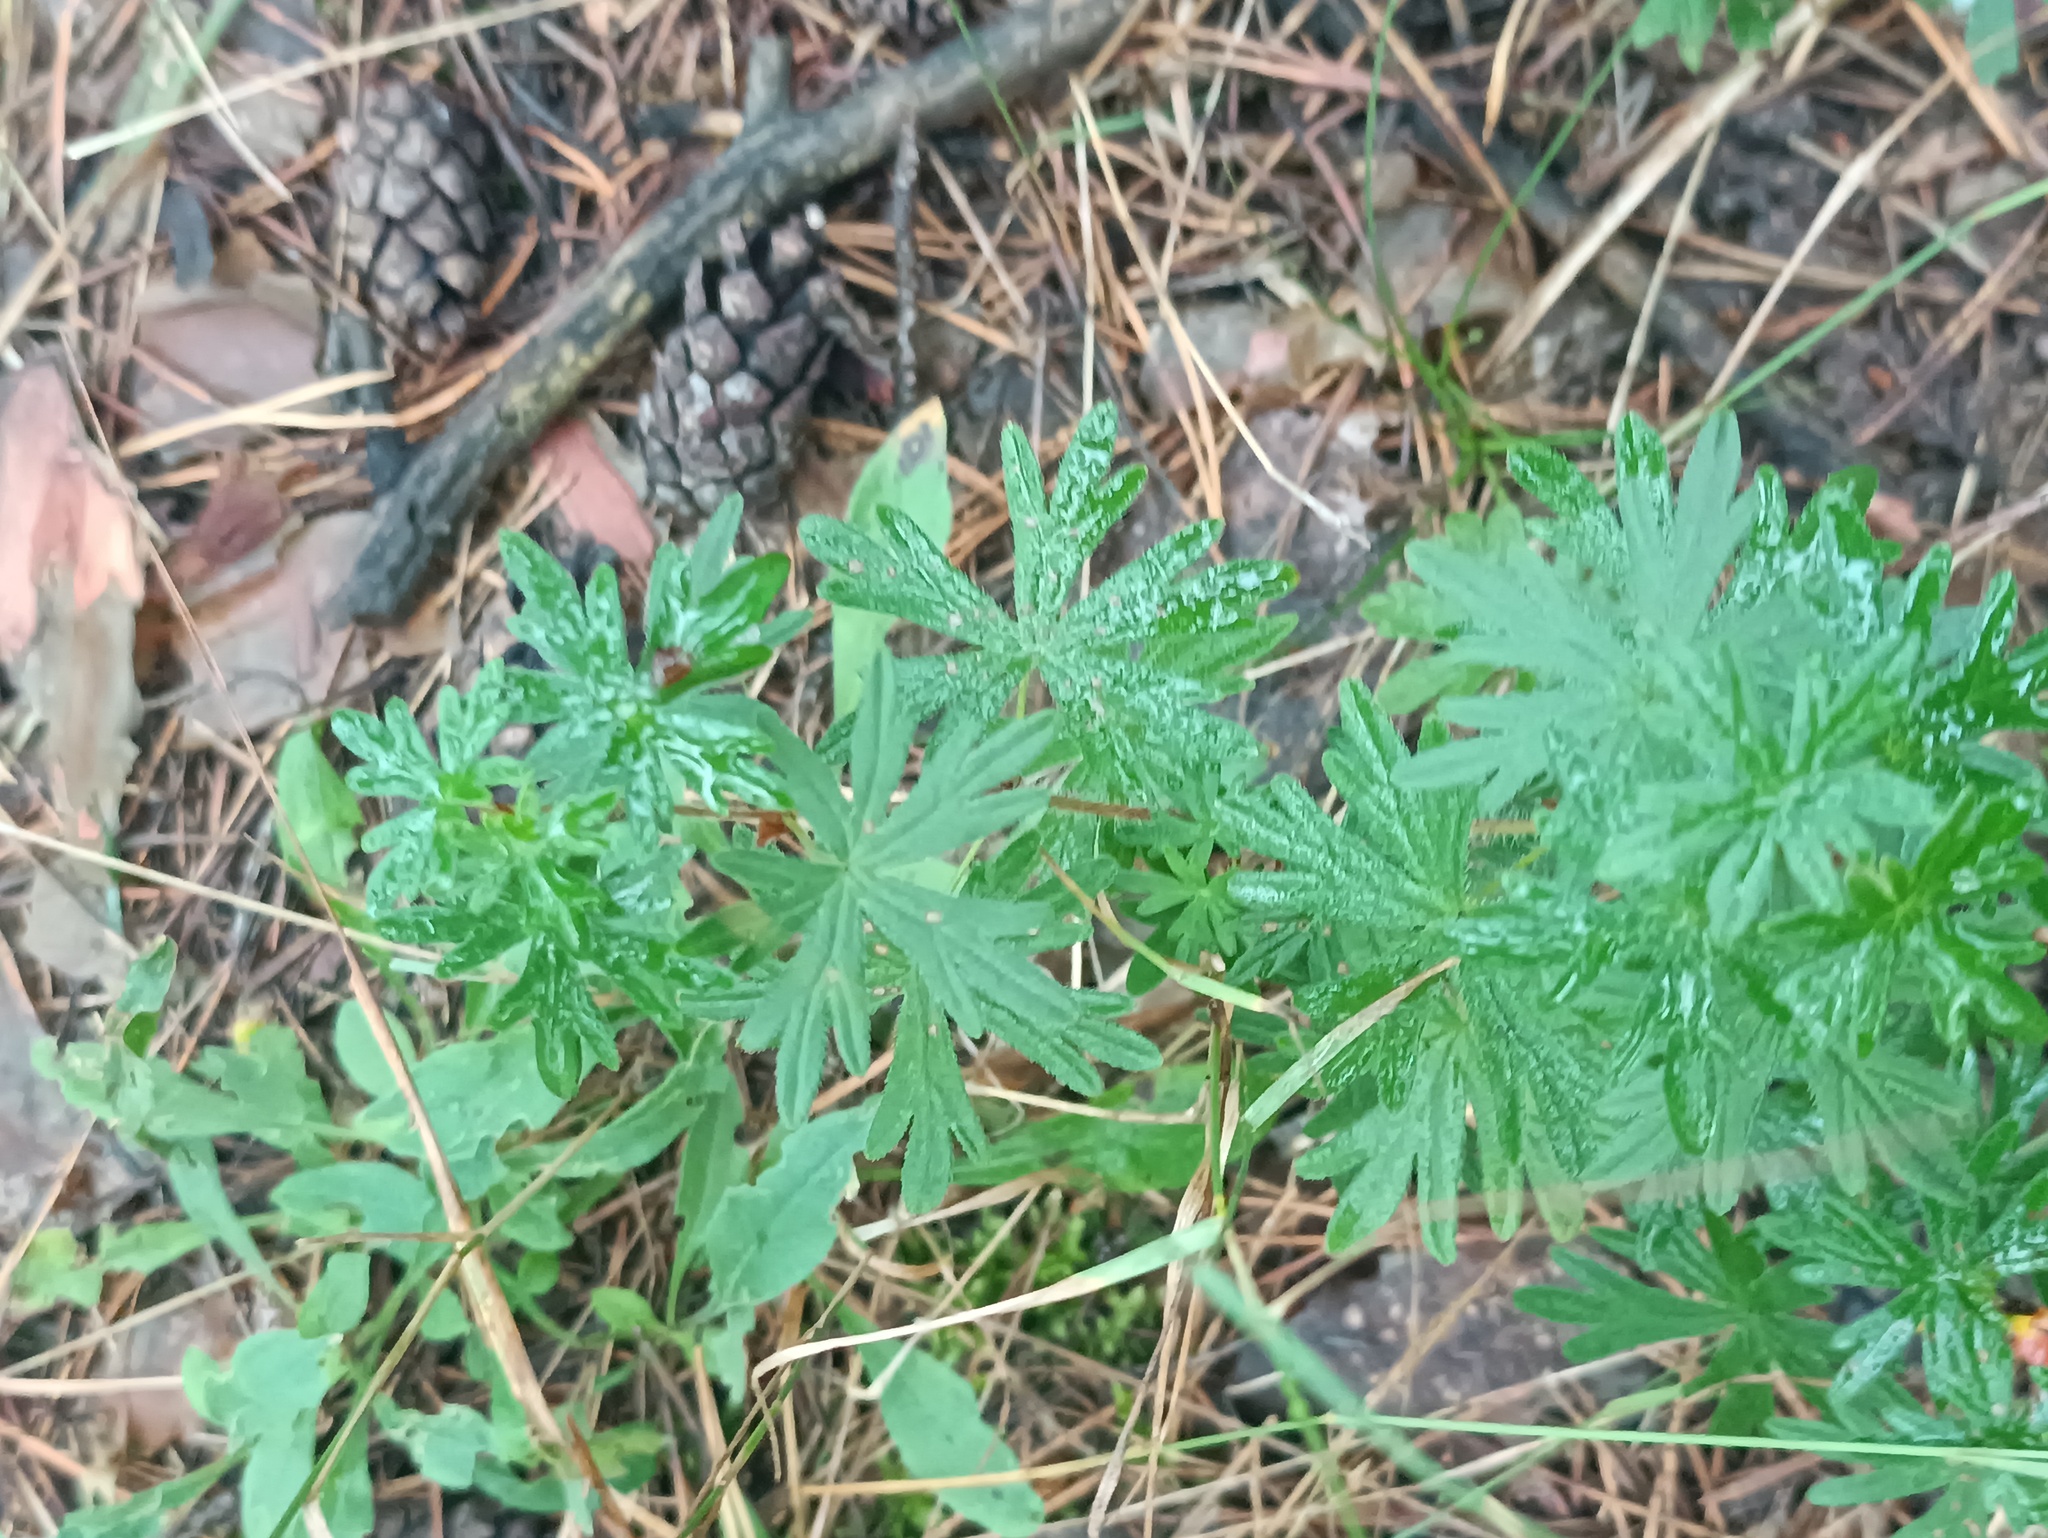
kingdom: Plantae
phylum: Tracheophyta
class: Magnoliopsida
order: Geraniales
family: Geraniaceae
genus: Geranium
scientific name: Geranium sanguineum
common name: Bloody crane's-bill
